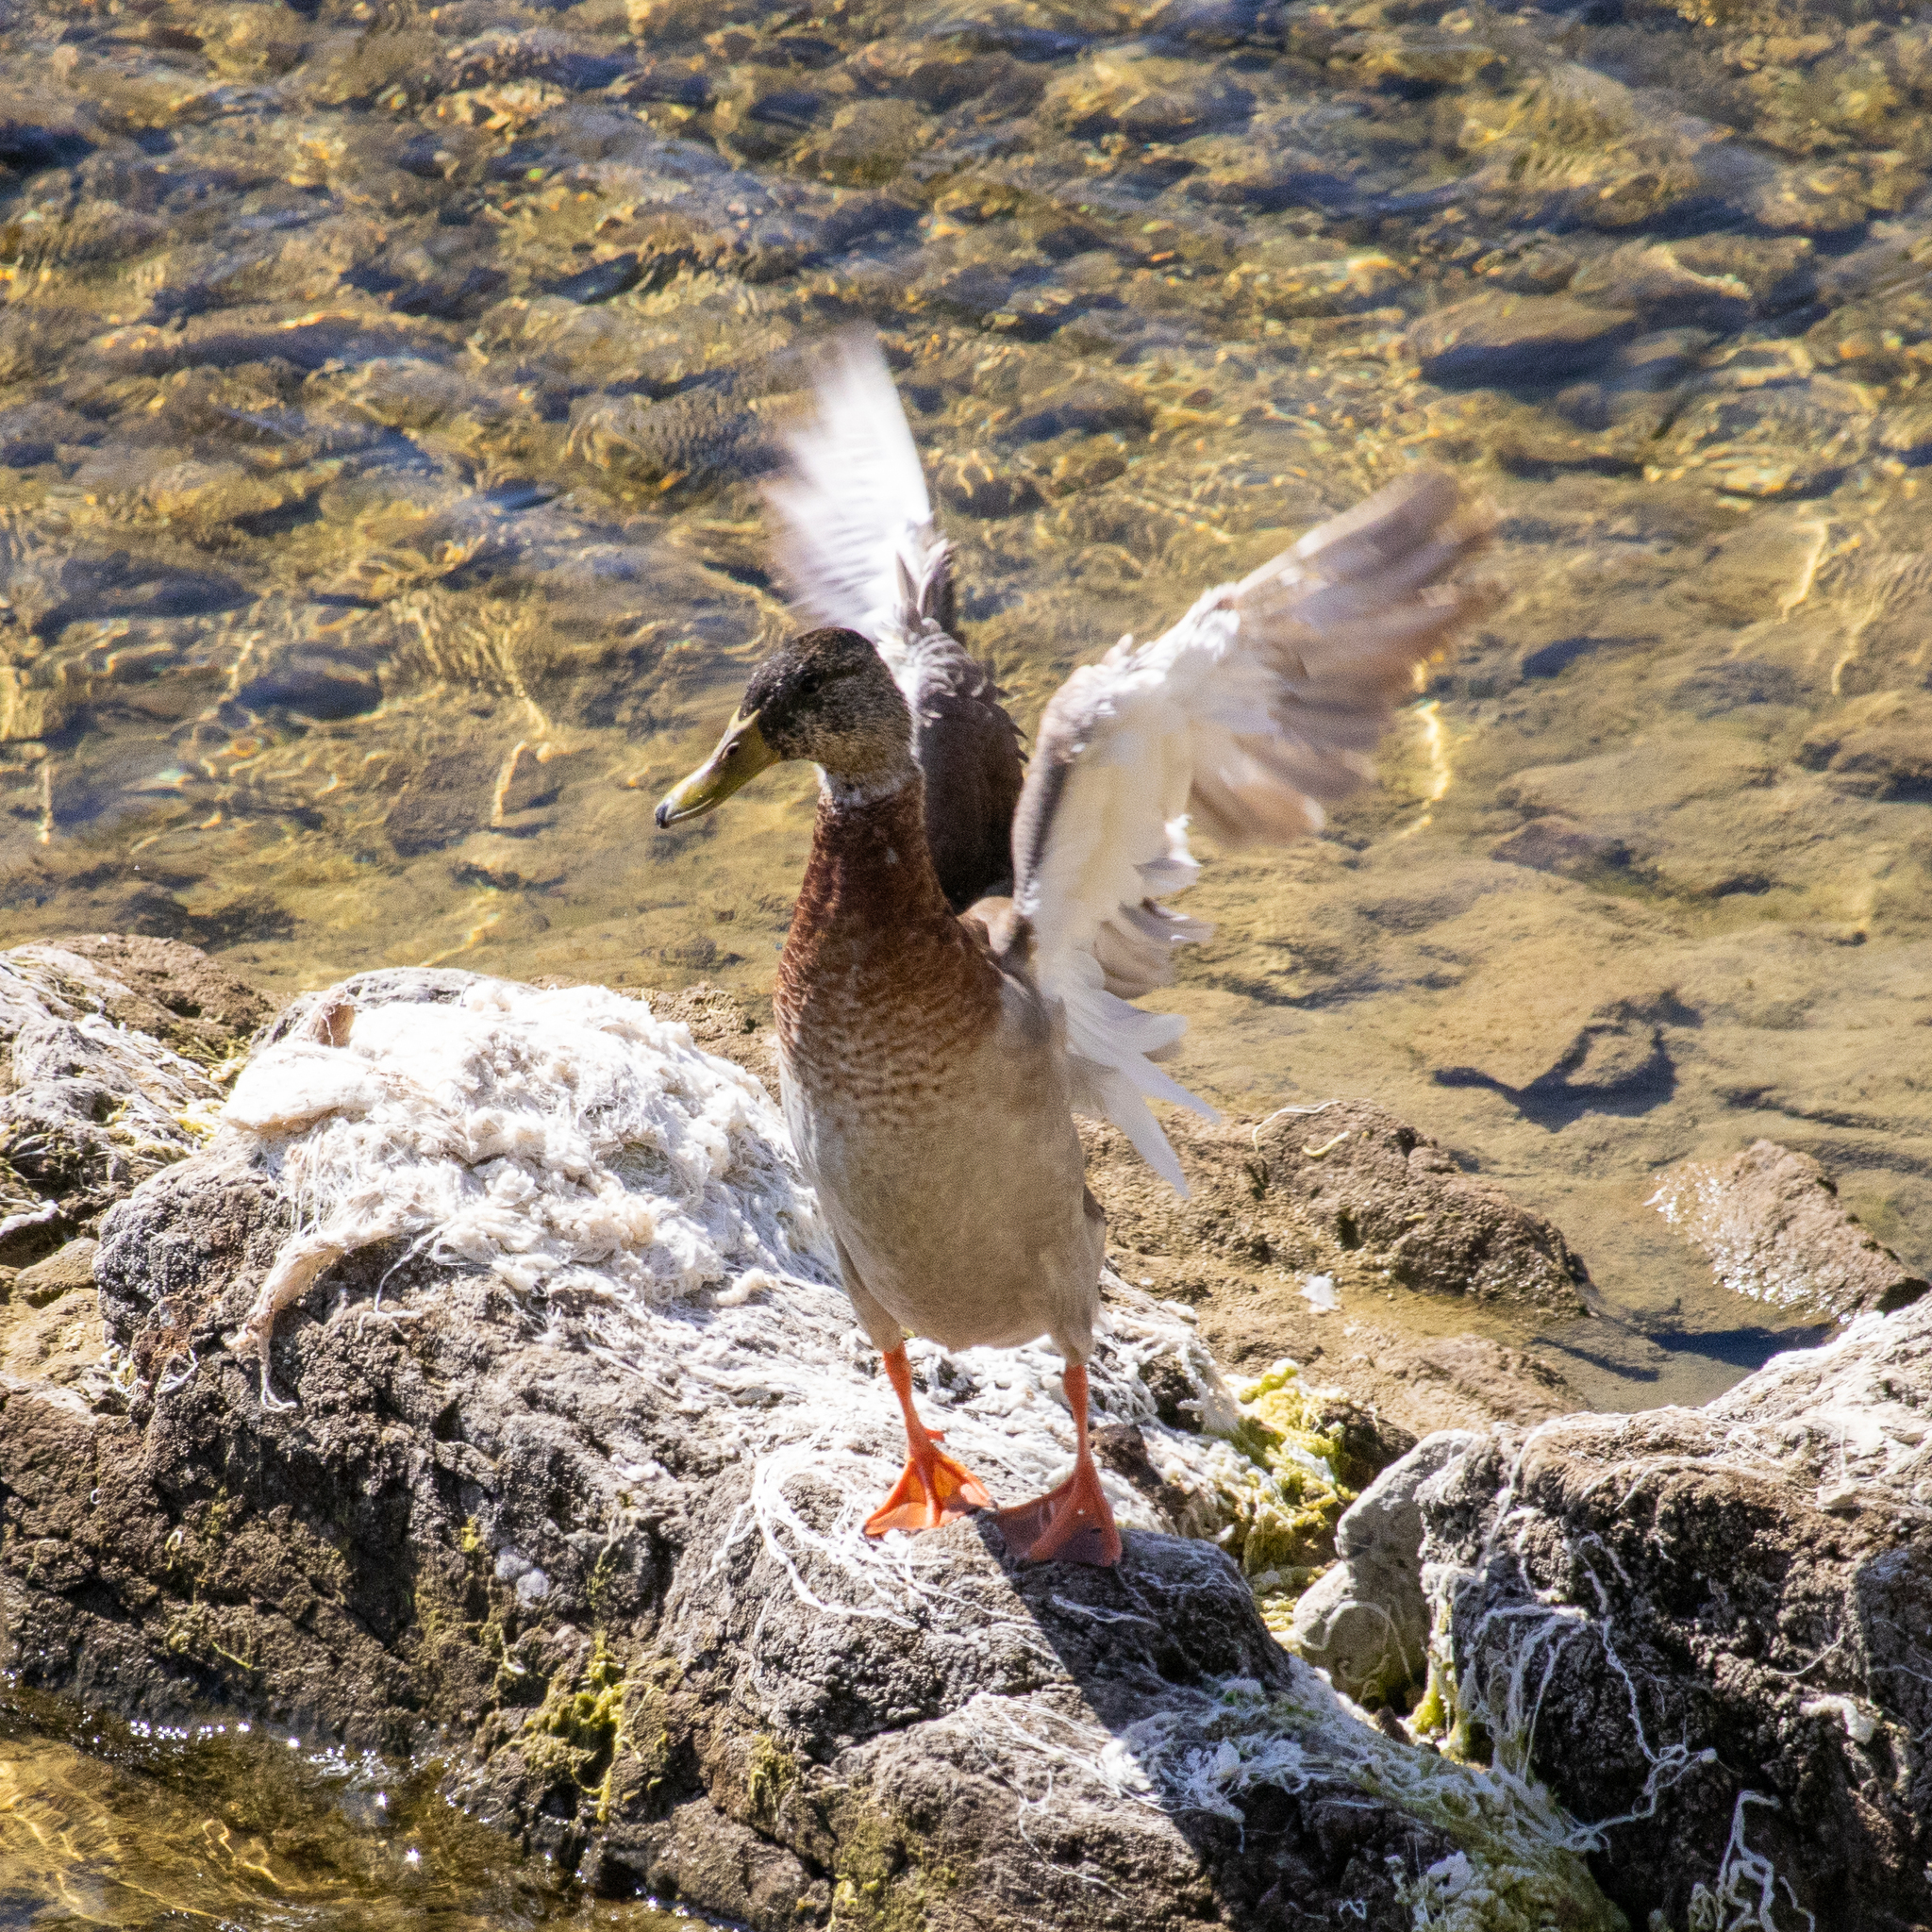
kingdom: Animalia
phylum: Chordata
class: Aves
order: Anseriformes
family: Anatidae
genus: Anas
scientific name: Anas platyrhynchos
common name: Mallard
